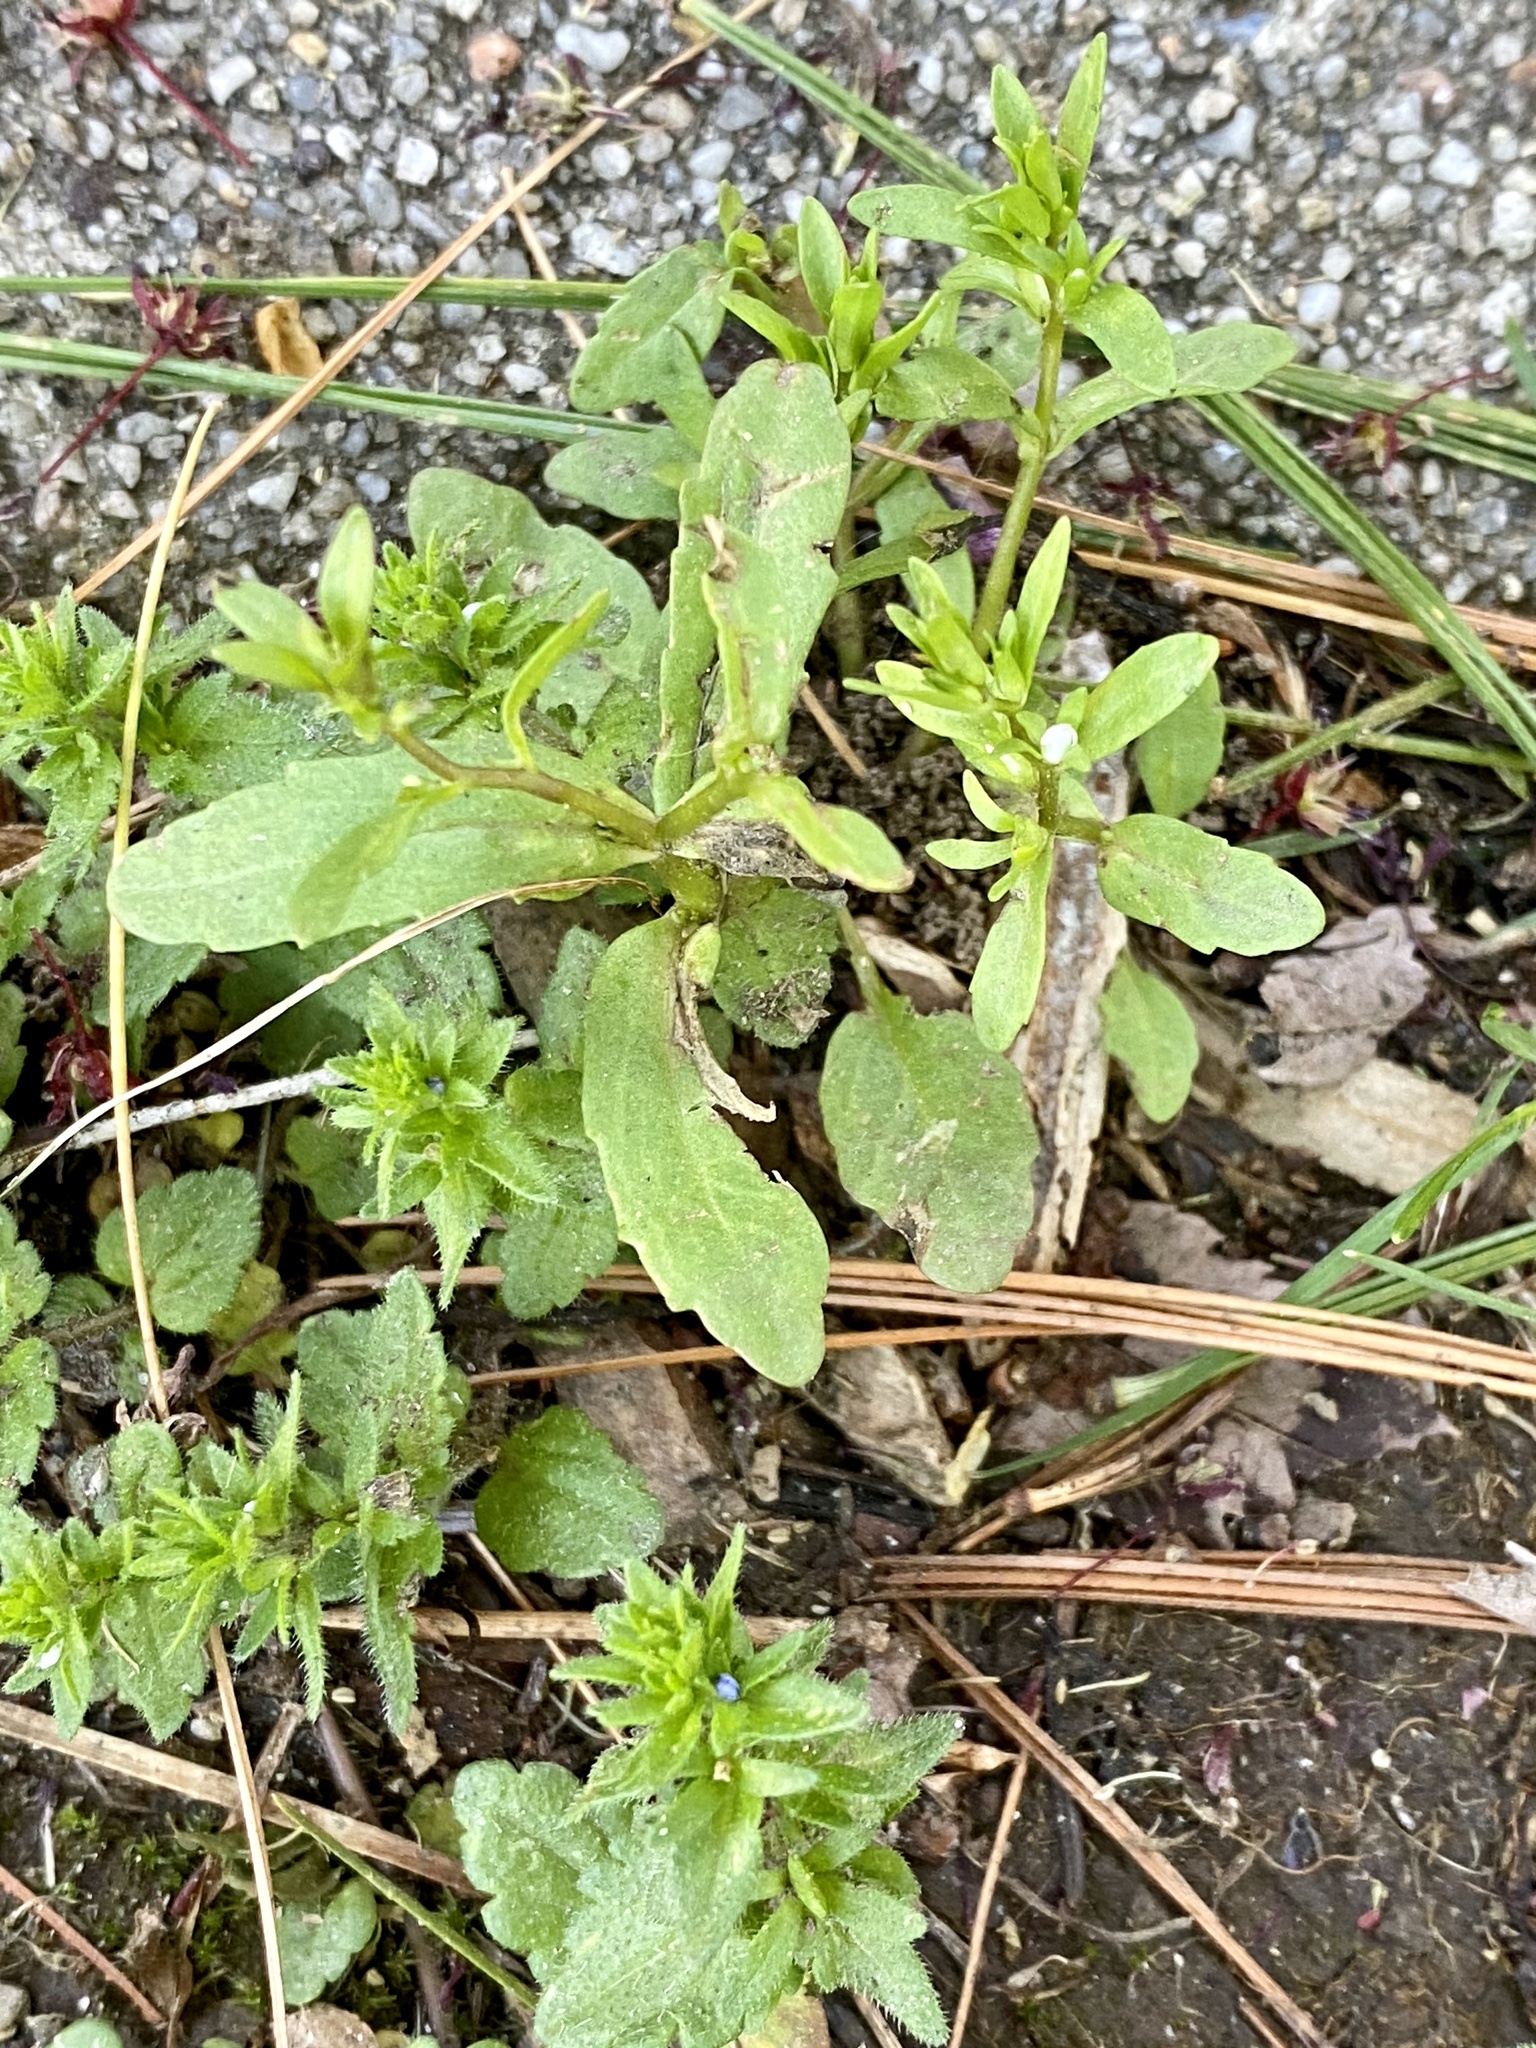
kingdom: Plantae
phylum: Tracheophyta
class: Magnoliopsida
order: Lamiales
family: Plantaginaceae
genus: Veronica
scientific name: Veronica peregrina
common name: Neckweed
